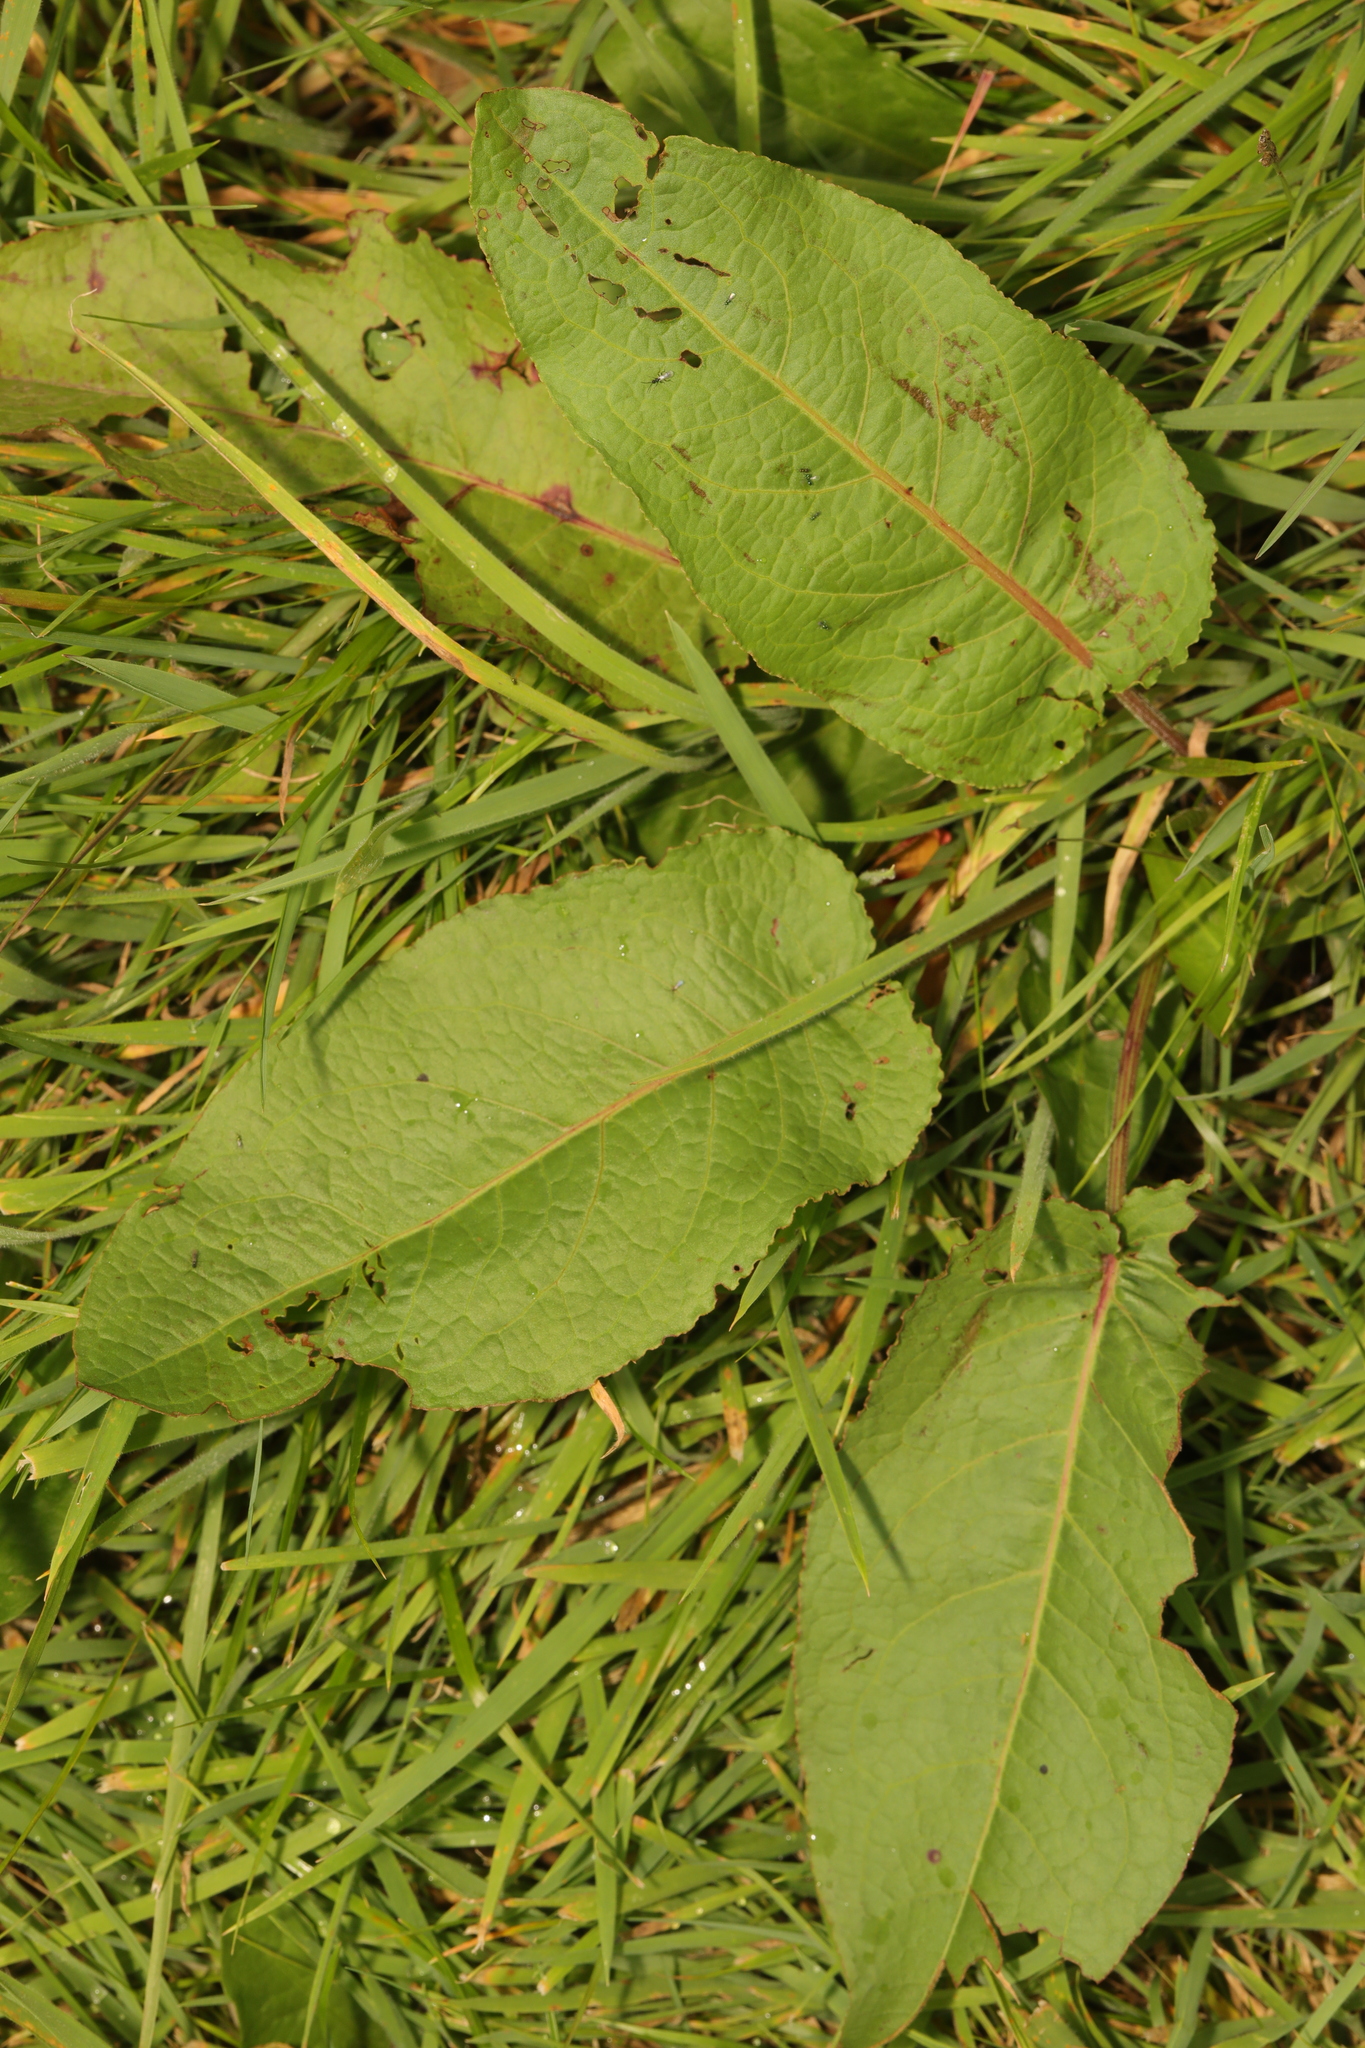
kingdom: Plantae
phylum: Tracheophyta
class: Magnoliopsida
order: Caryophyllales
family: Polygonaceae
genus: Rumex
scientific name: Rumex obtusifolius
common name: Bitter dock
